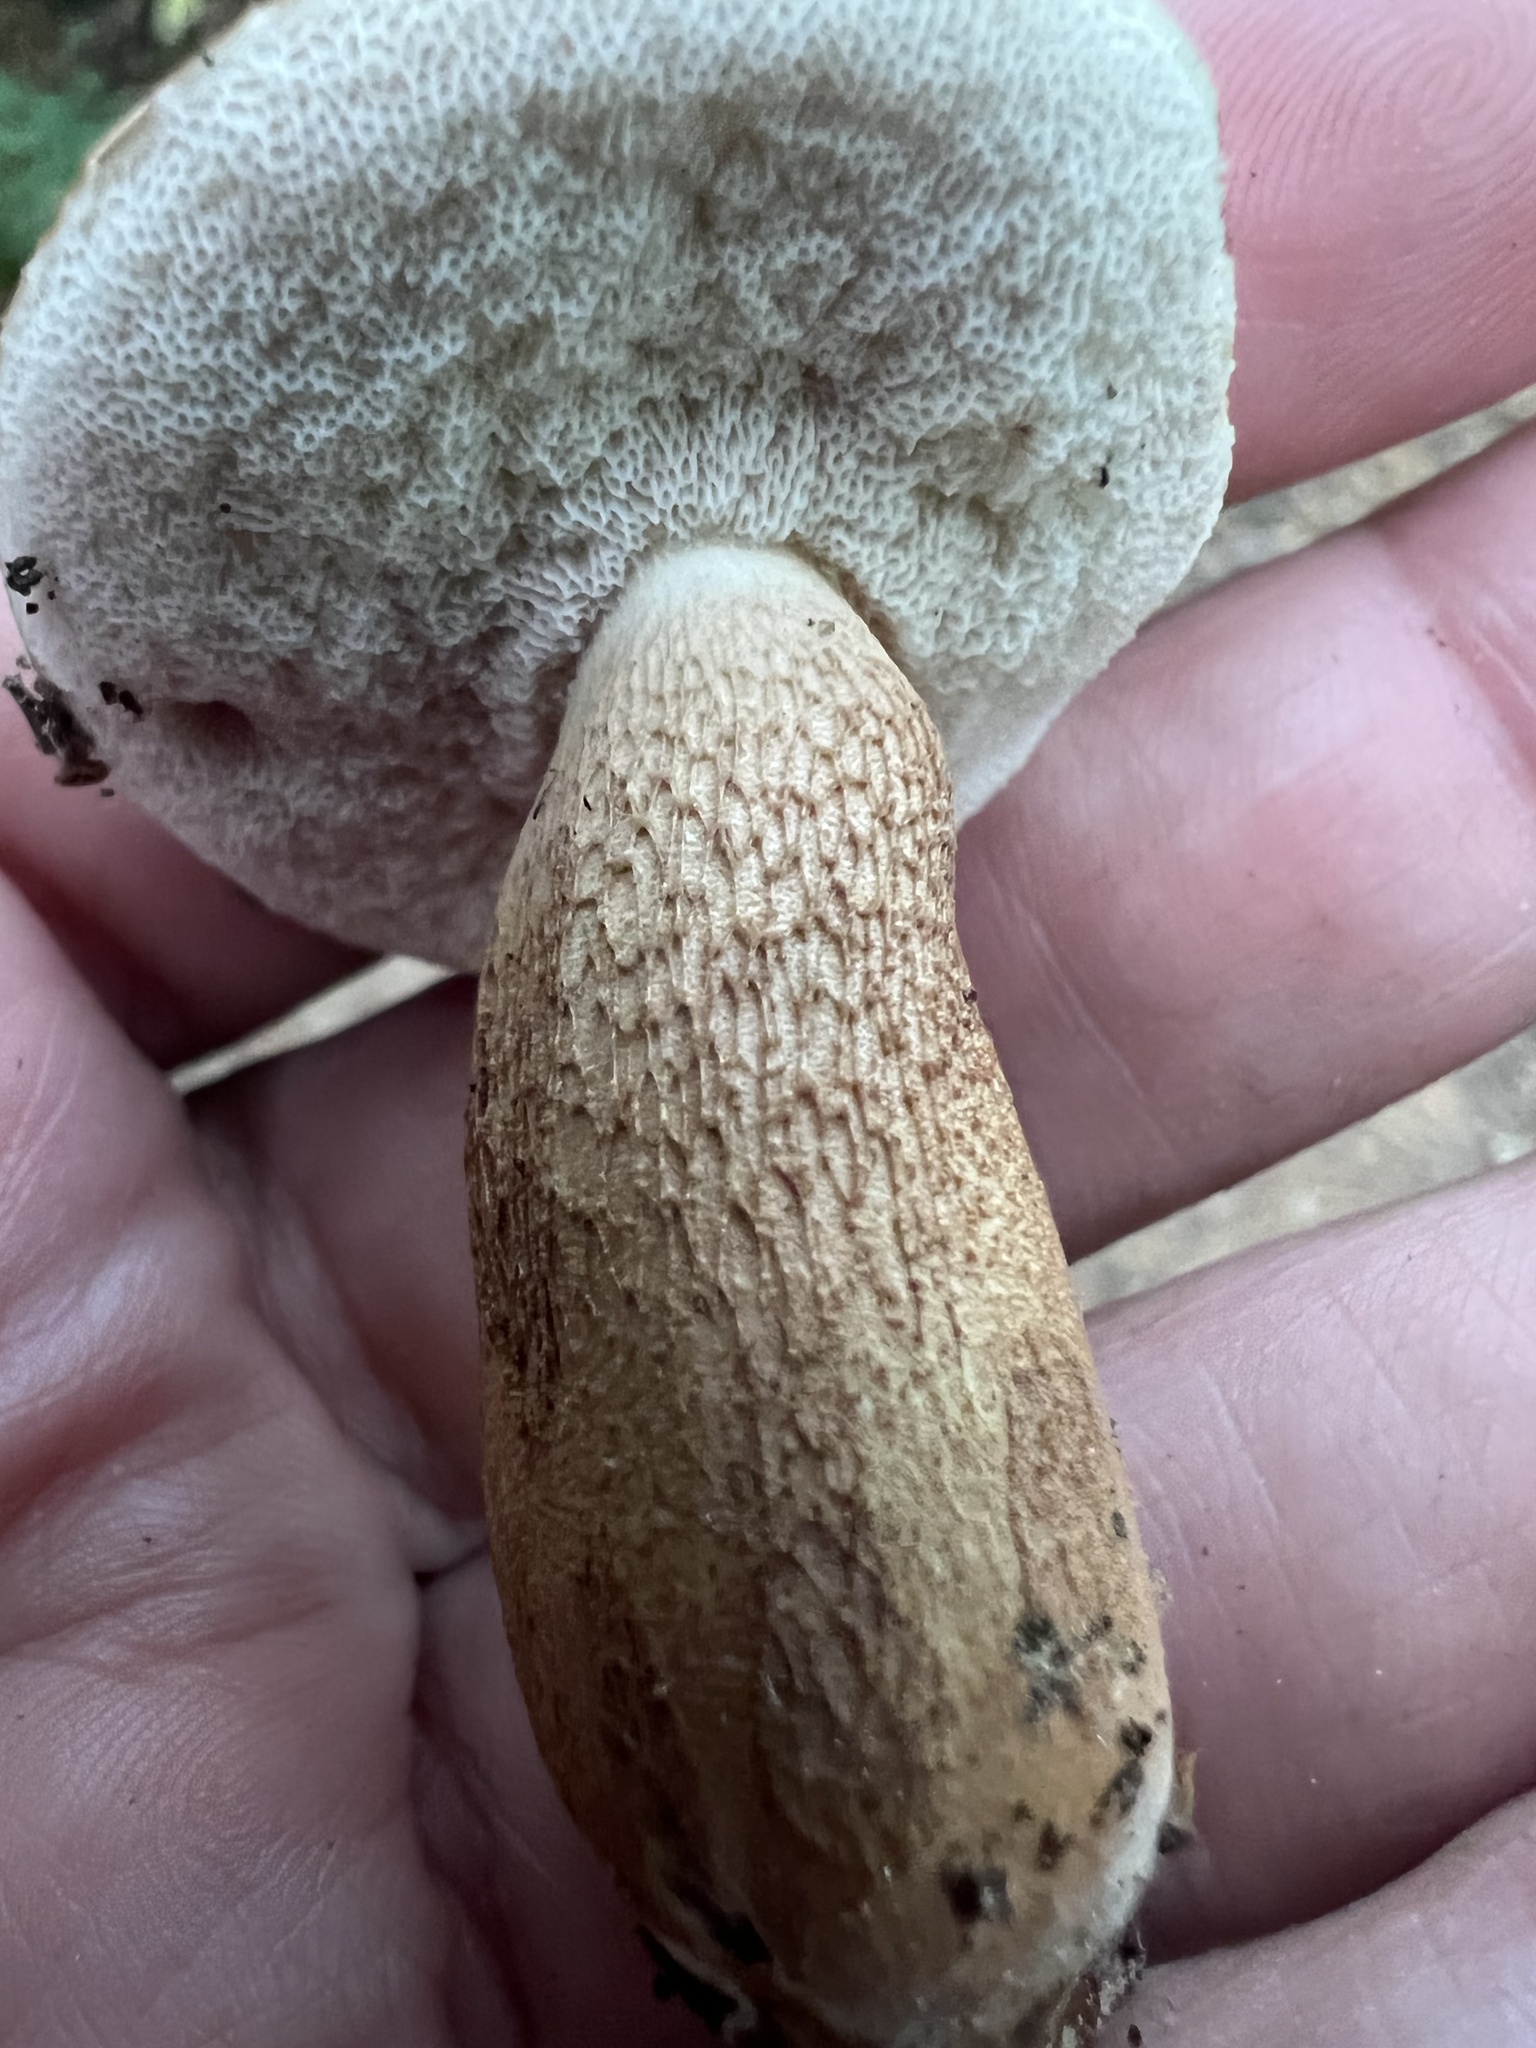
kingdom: Fungi
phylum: Basidiomycota
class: Agaricomycetes
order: Boletales
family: Boletaceae
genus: Tylopilus
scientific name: Tylopilus felleus
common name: Bitter bolete
